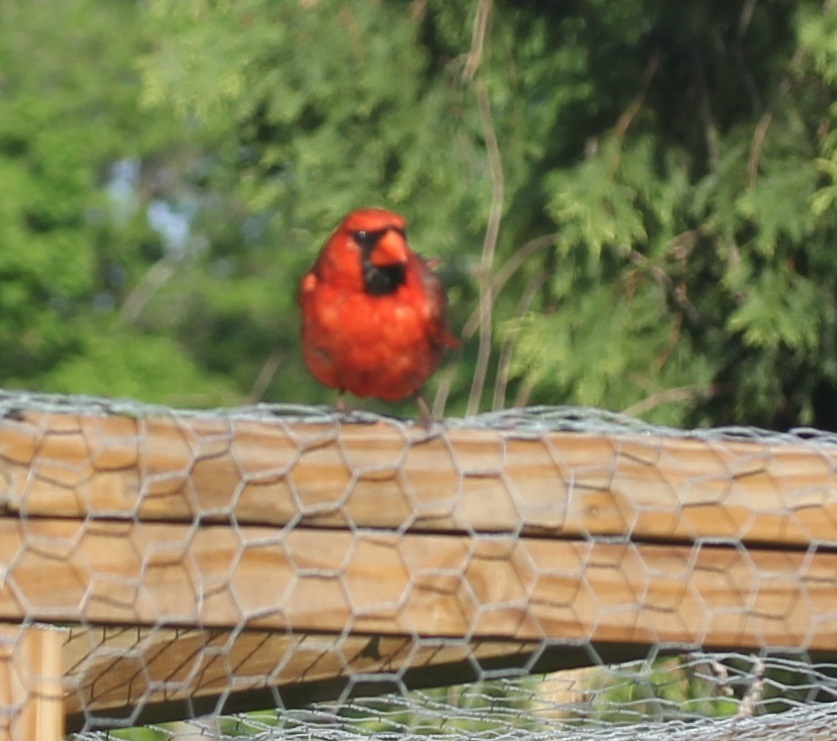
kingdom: Animalia
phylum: Chordata
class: Aves
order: Passeriformes
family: Cardinalidae
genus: Cardinalis
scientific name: Cardinalis cardinalis
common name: Northern cardinal
